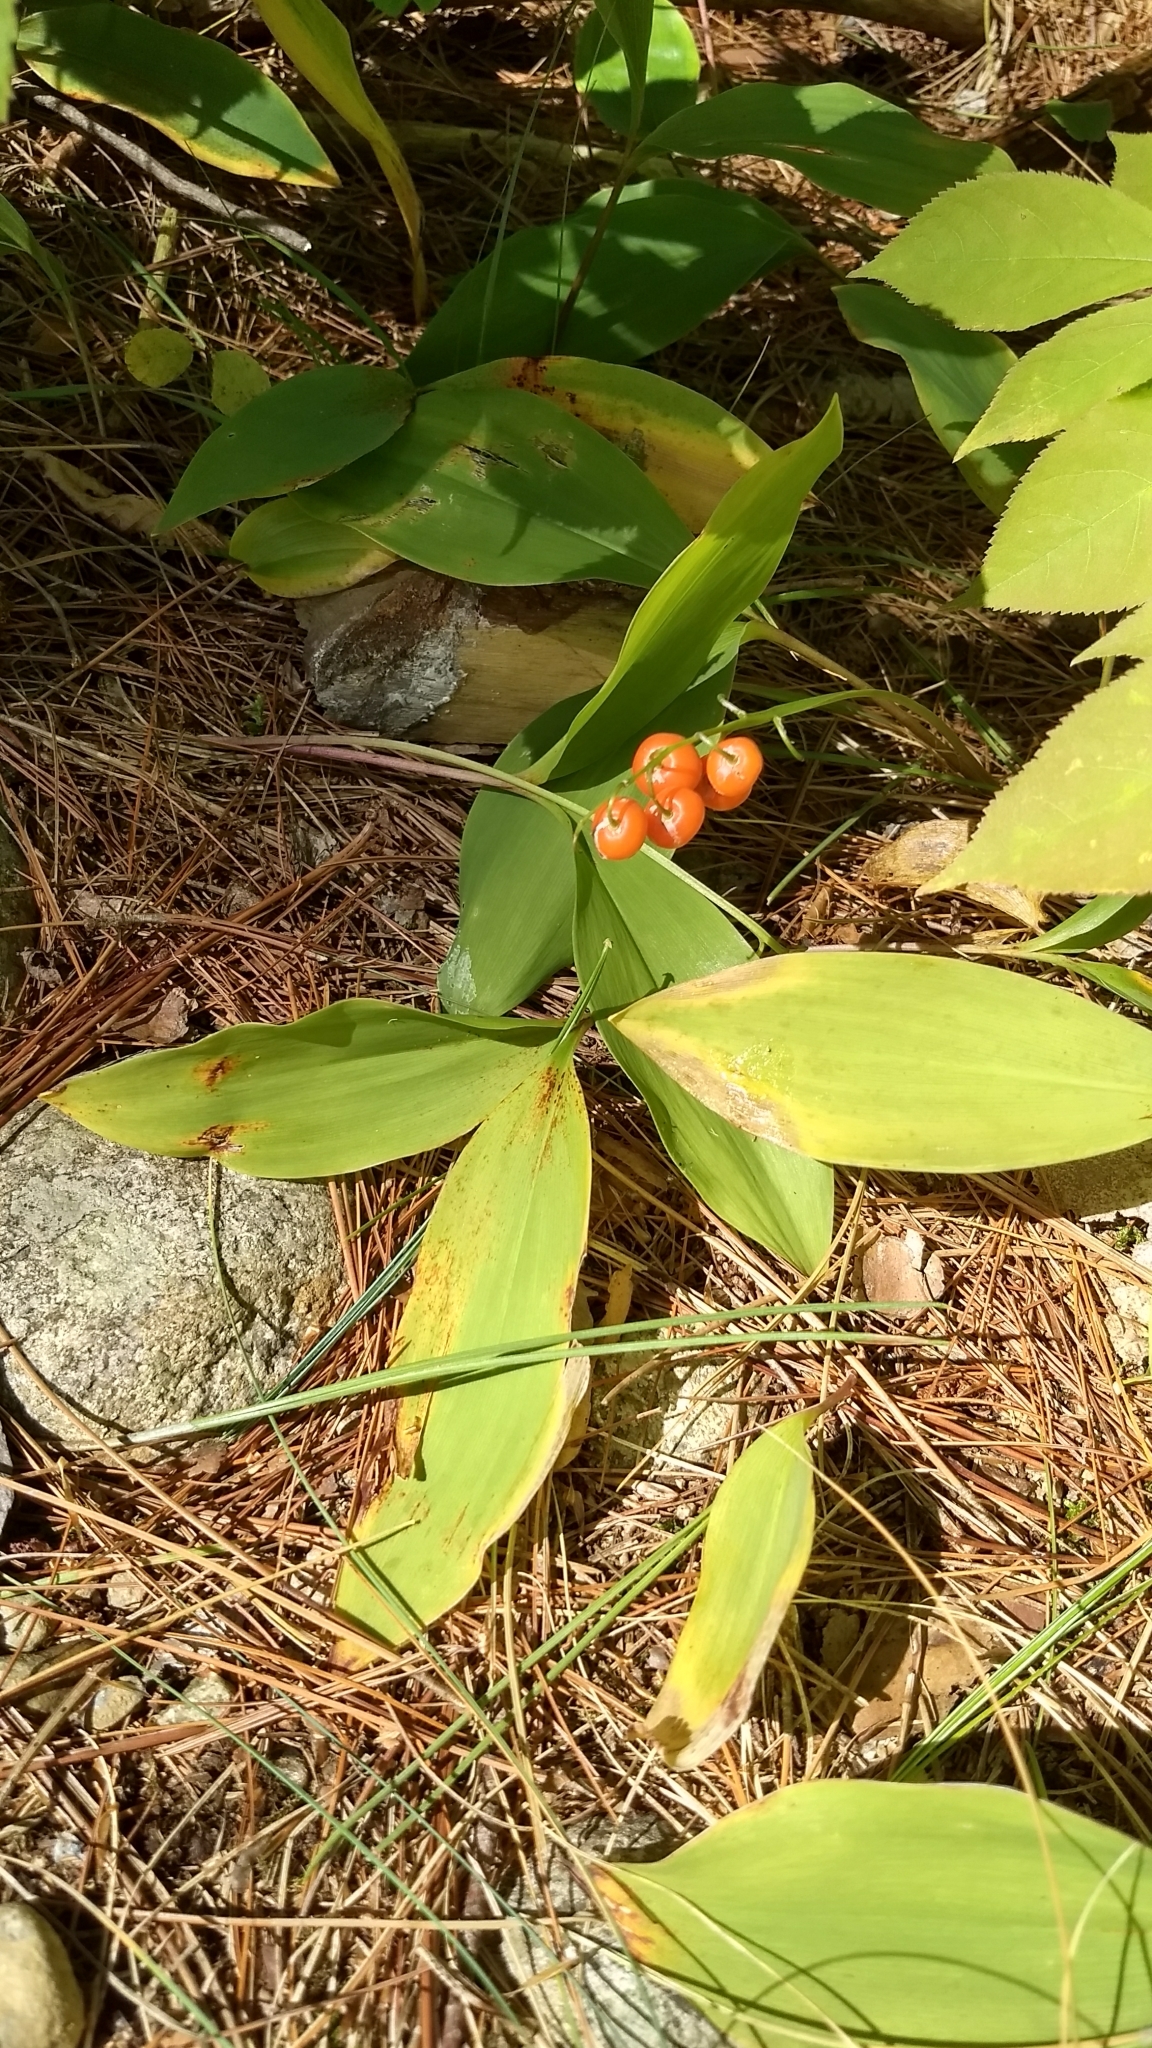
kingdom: Plantae
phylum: Tracheophyta
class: Liliopsida
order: Asparagales
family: Asparagaceae
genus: Convallaria
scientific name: Convallaria majalis
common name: Lily-of-the-valley
